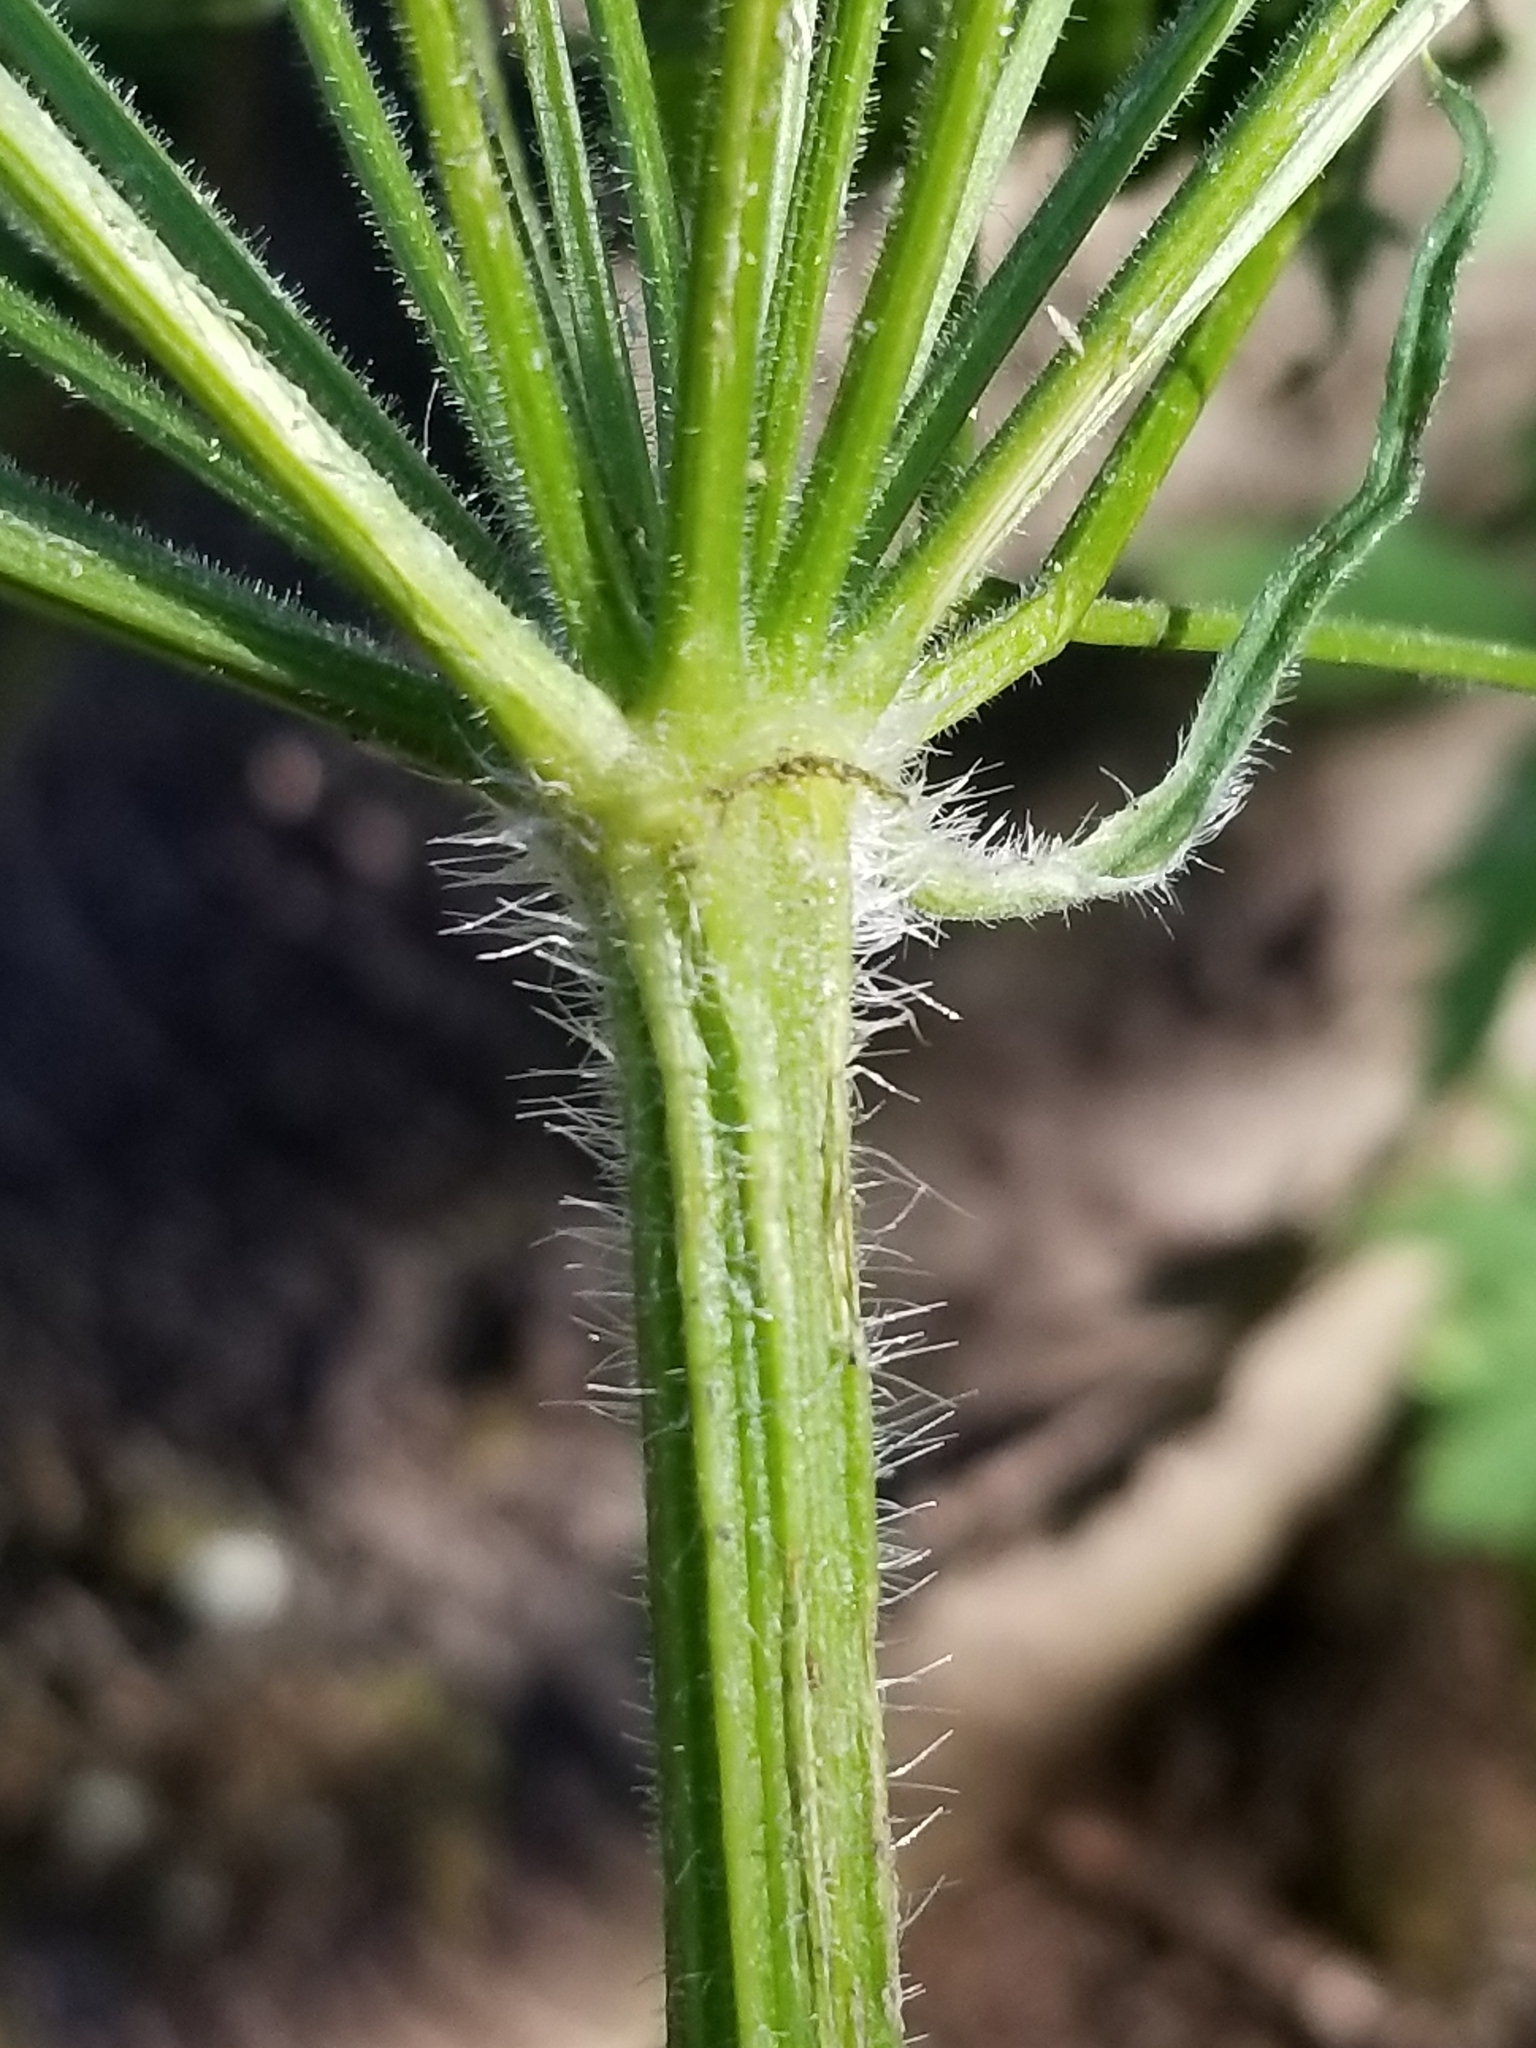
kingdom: Plantae
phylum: Tracheophyta
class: Magnoliopsida
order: Apiales
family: Apiaceae
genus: Heracleum
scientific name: Heracleum maximum
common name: American cow parsnip
